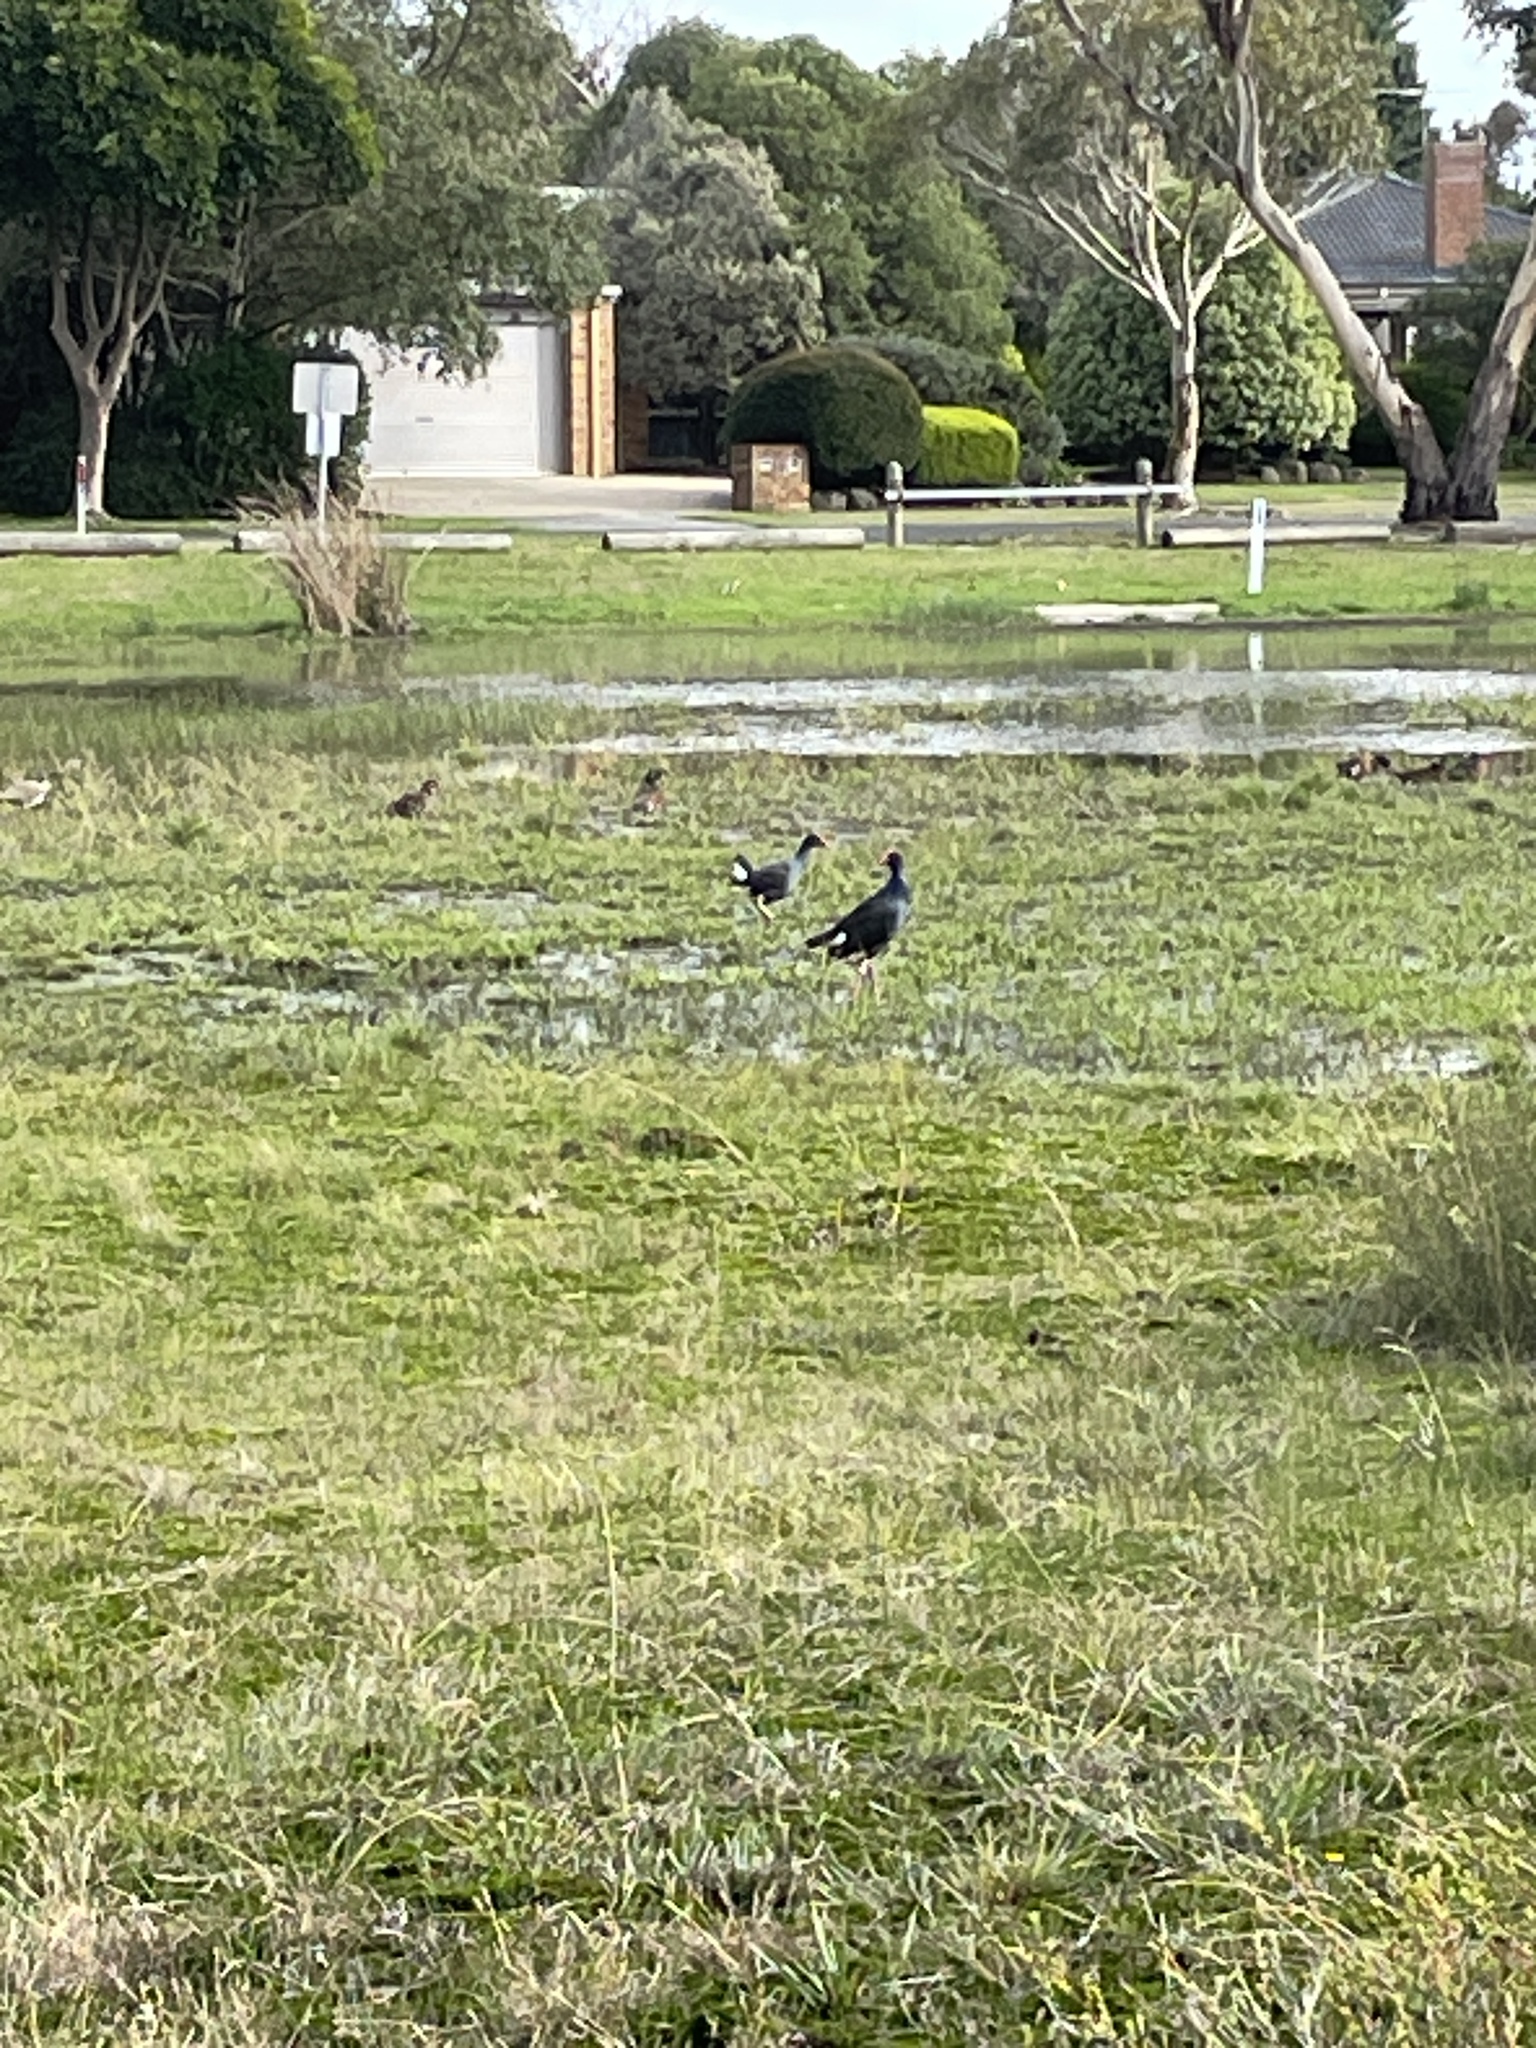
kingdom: Animalia
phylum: Chordata
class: Aves
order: Gruiformes
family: Rallidae
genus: Porphyrio
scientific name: Porphyrio melanotus
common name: Australasian swamphen
